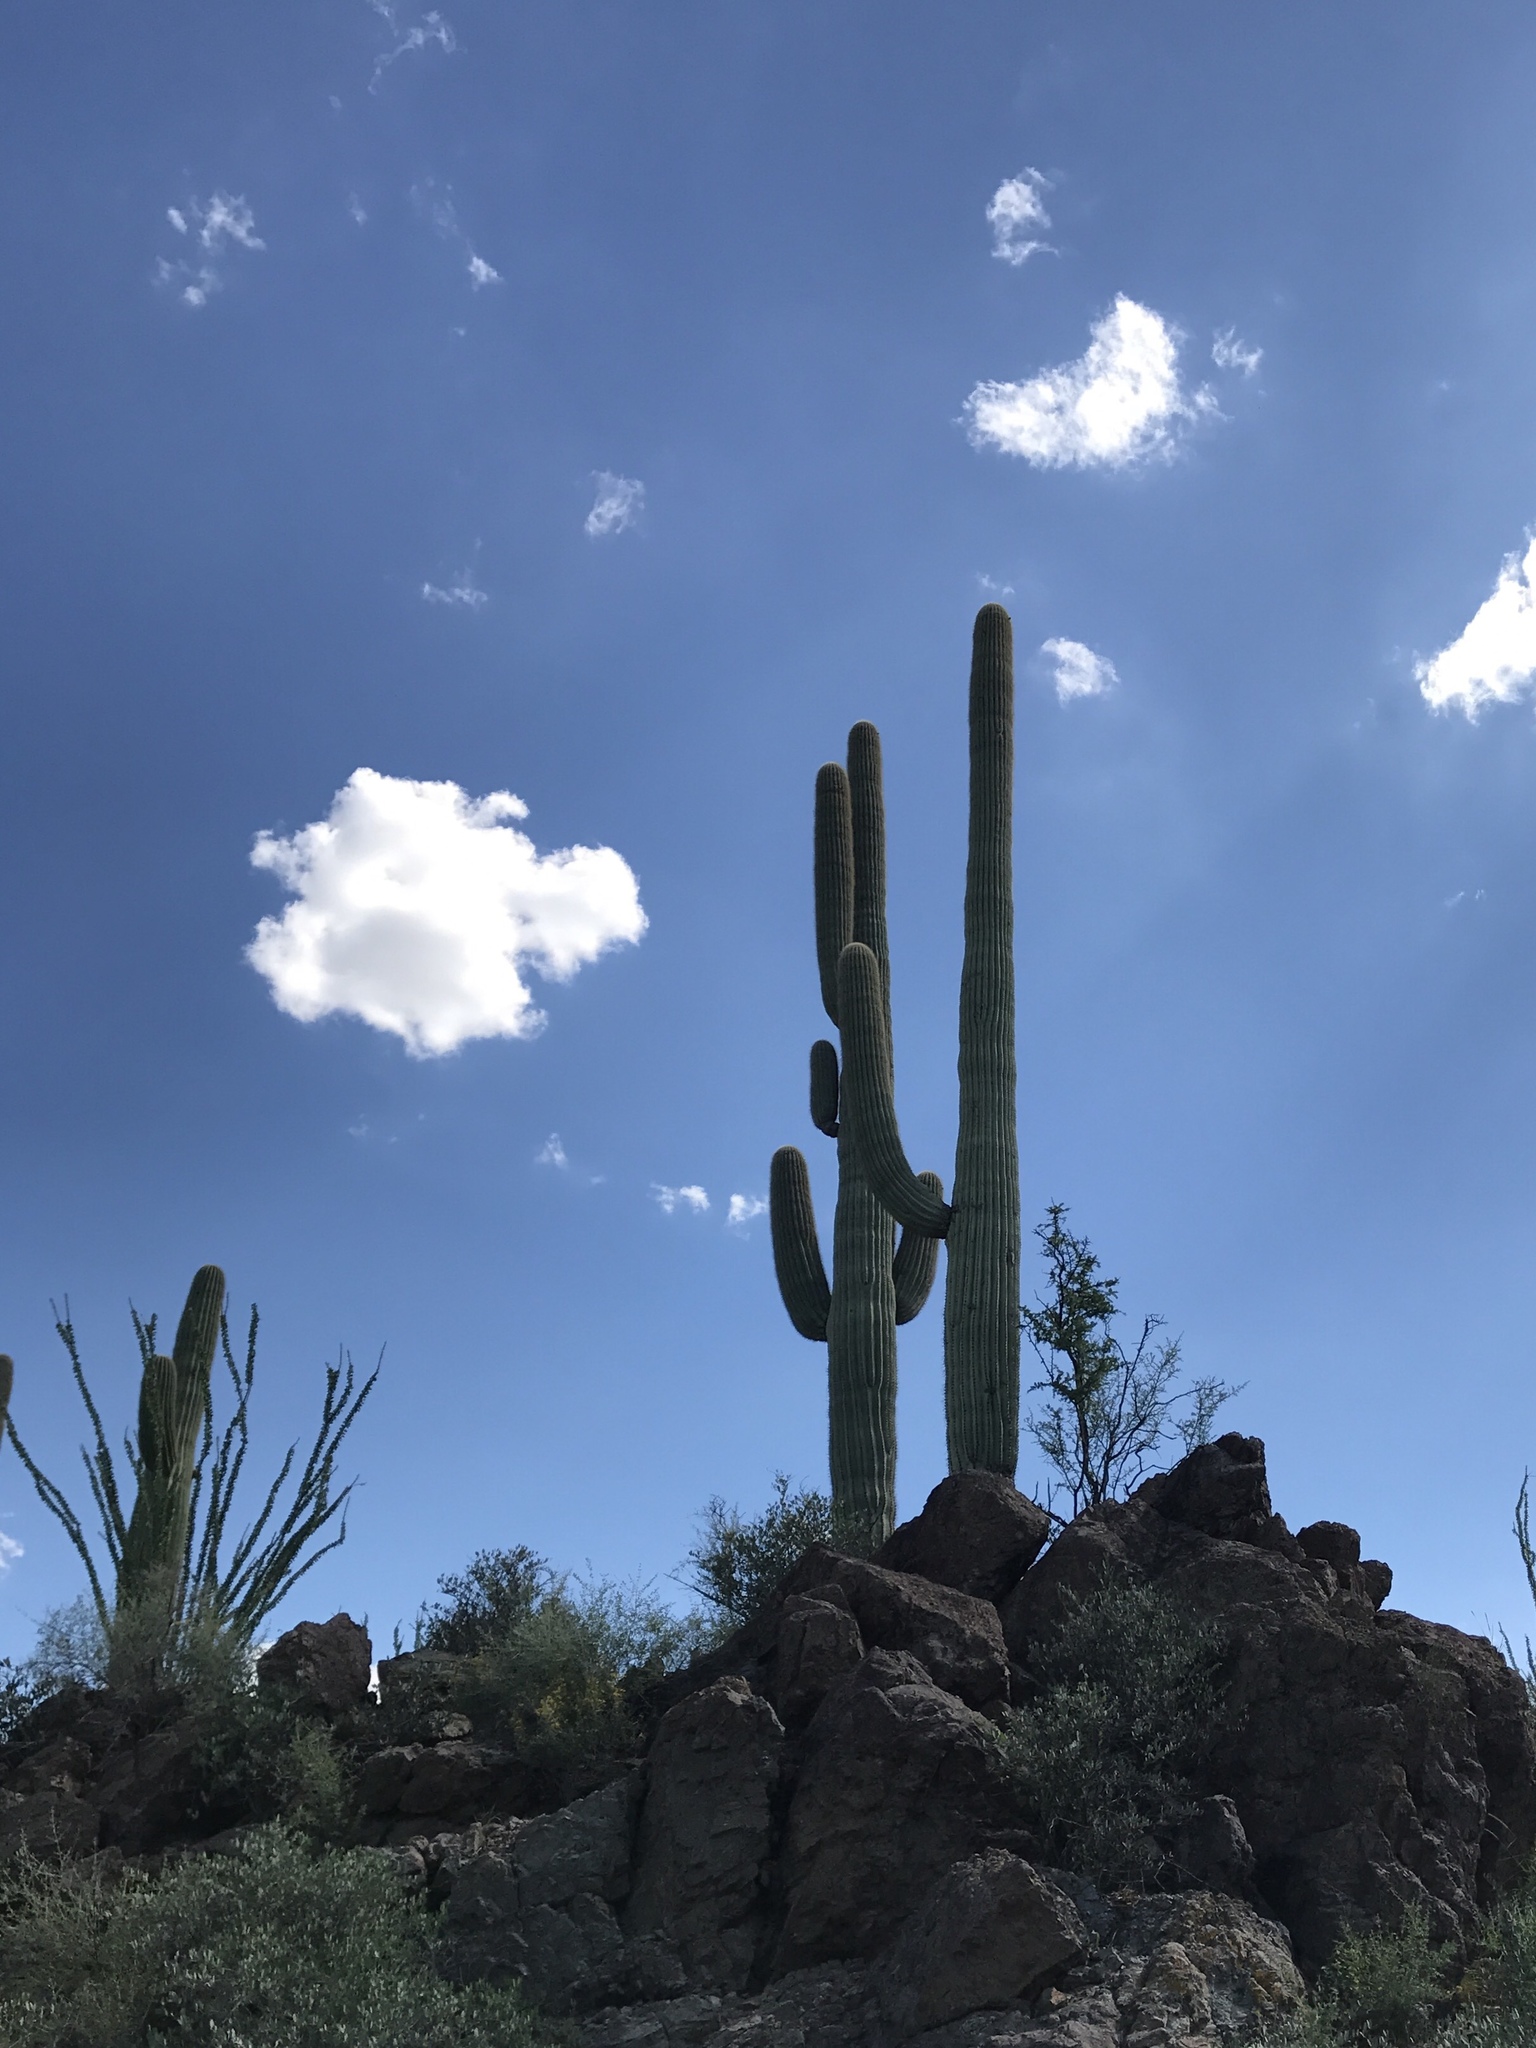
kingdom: Plantae
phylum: Tracheophyta
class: Magnoliopsida
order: Caryophyllales
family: Cactaceae
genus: Carnegiea
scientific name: Carnegiea gigantea
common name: Saguaro
